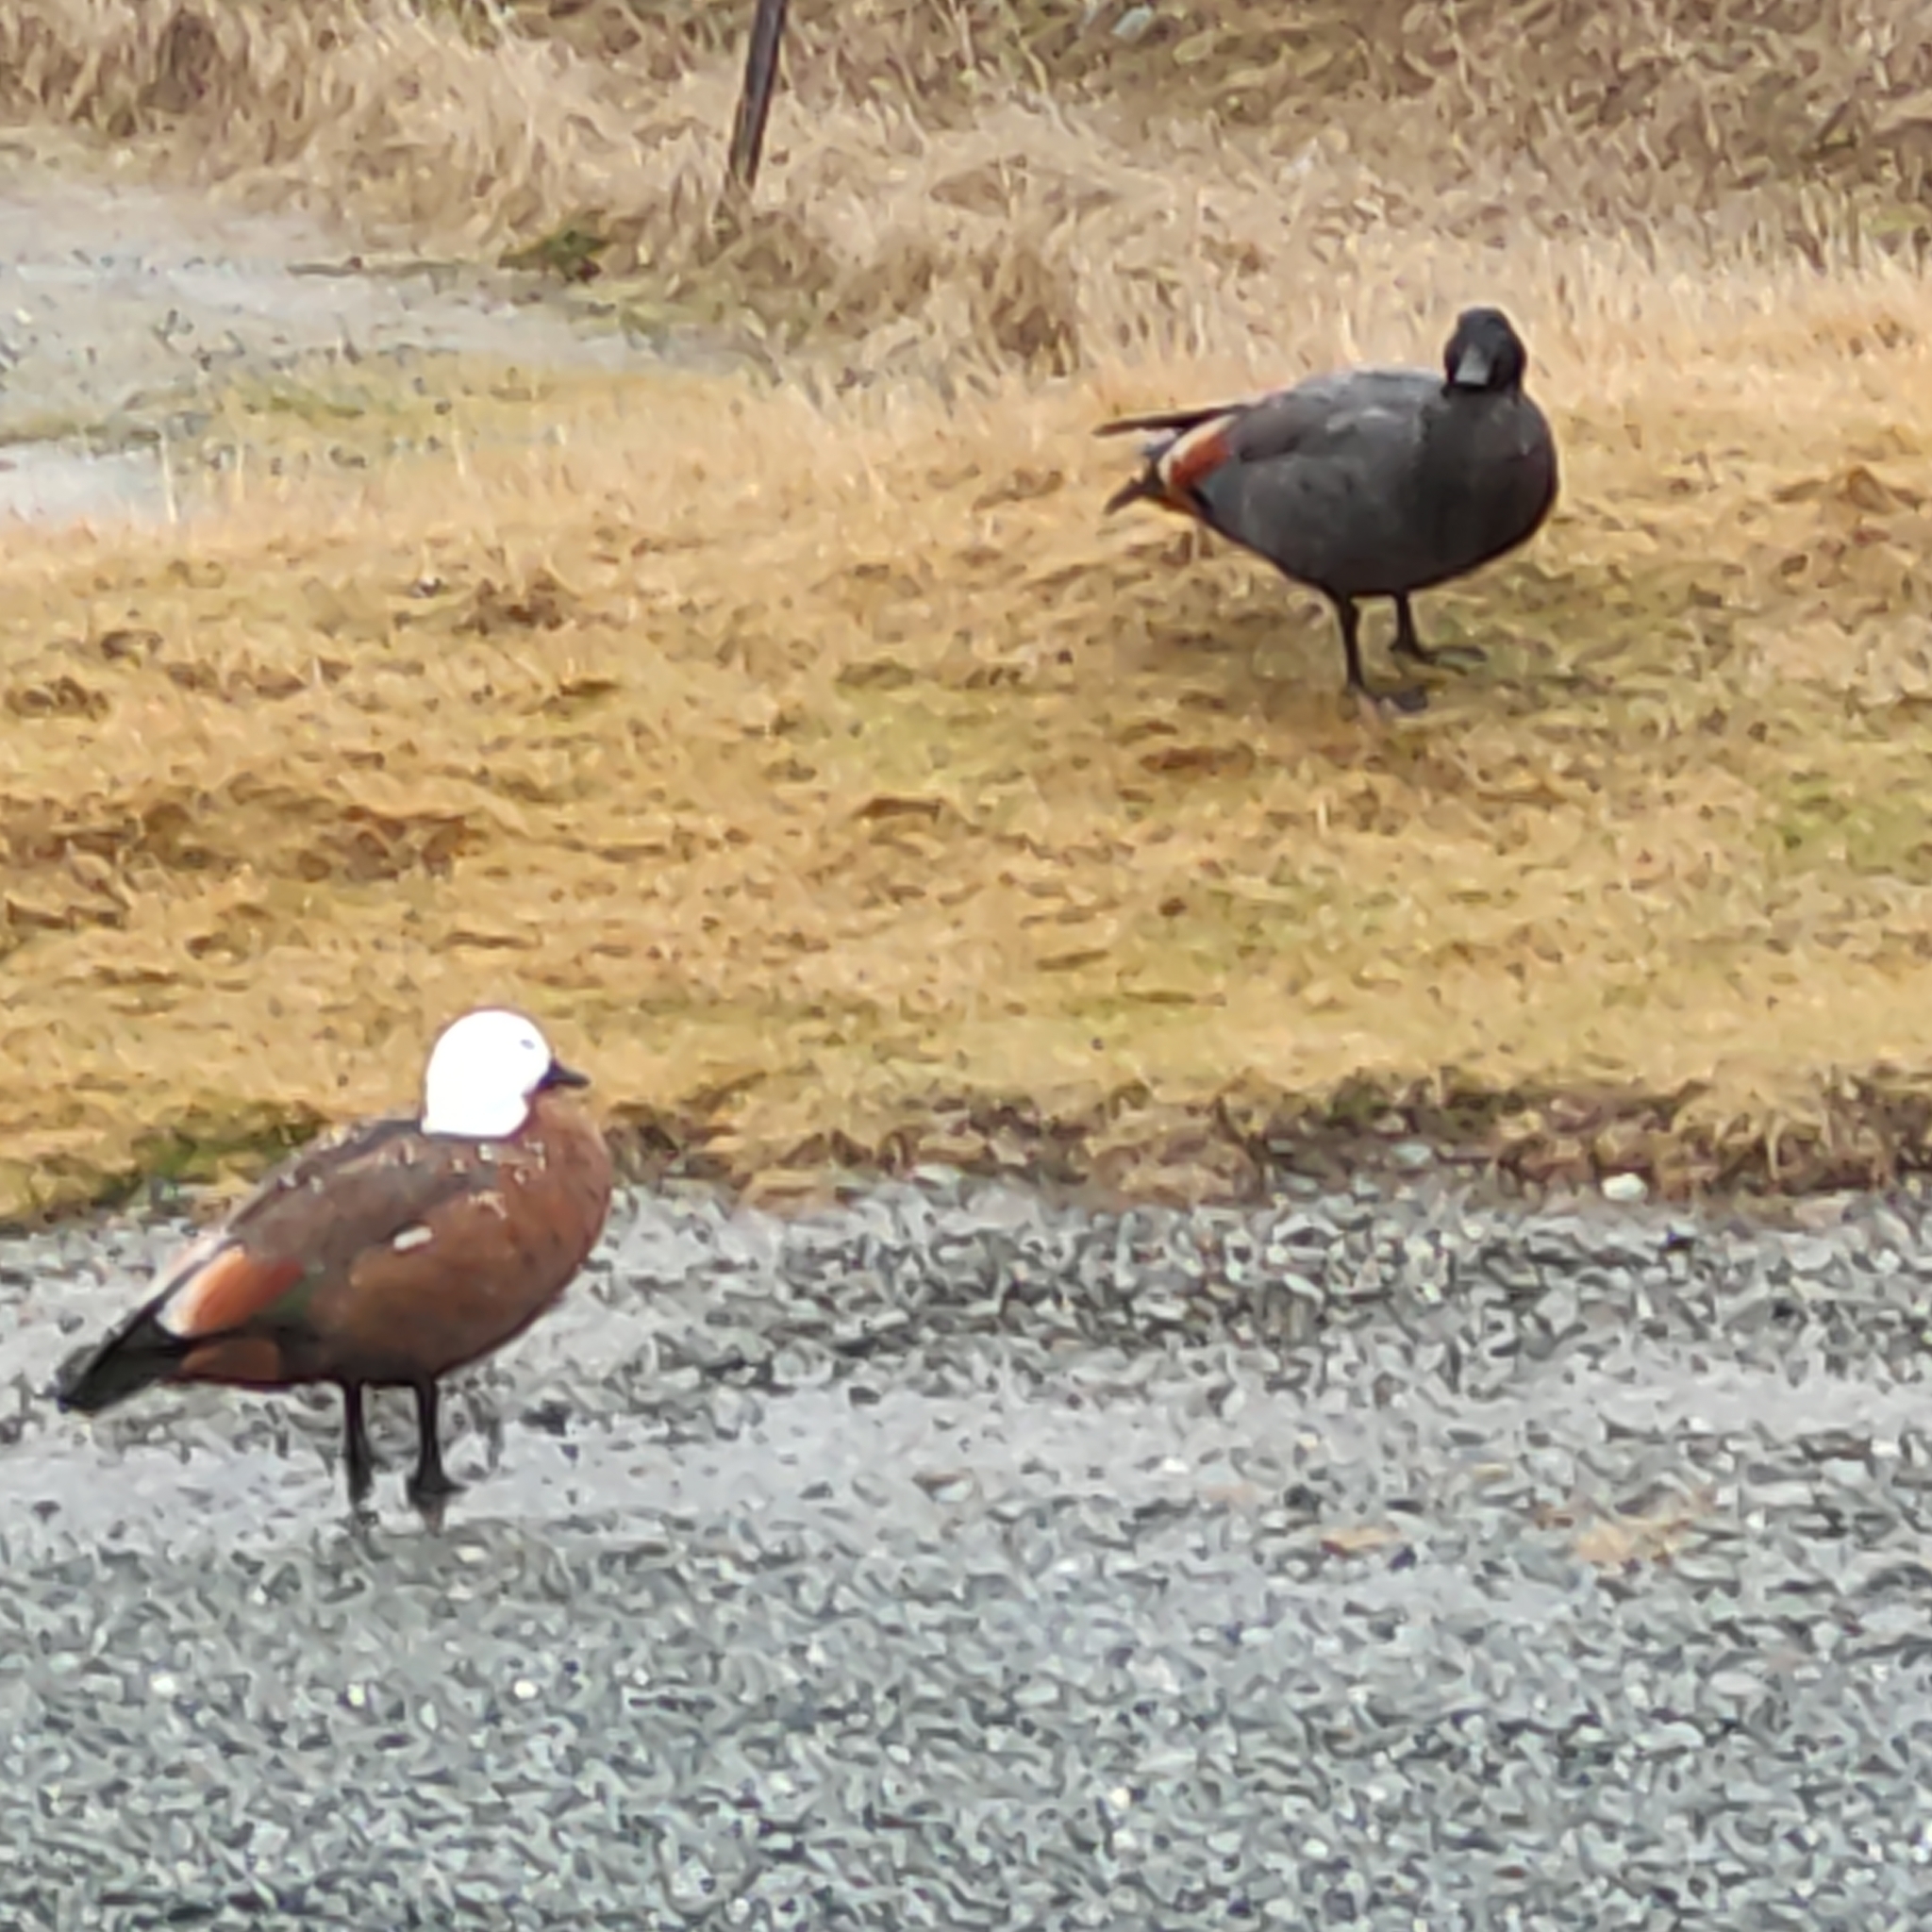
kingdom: Animalia
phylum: Chordata
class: Aves
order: Anseriformes
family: Anatidae
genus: Tadorna
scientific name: Tadorna variegata
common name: Paradise shelduck
